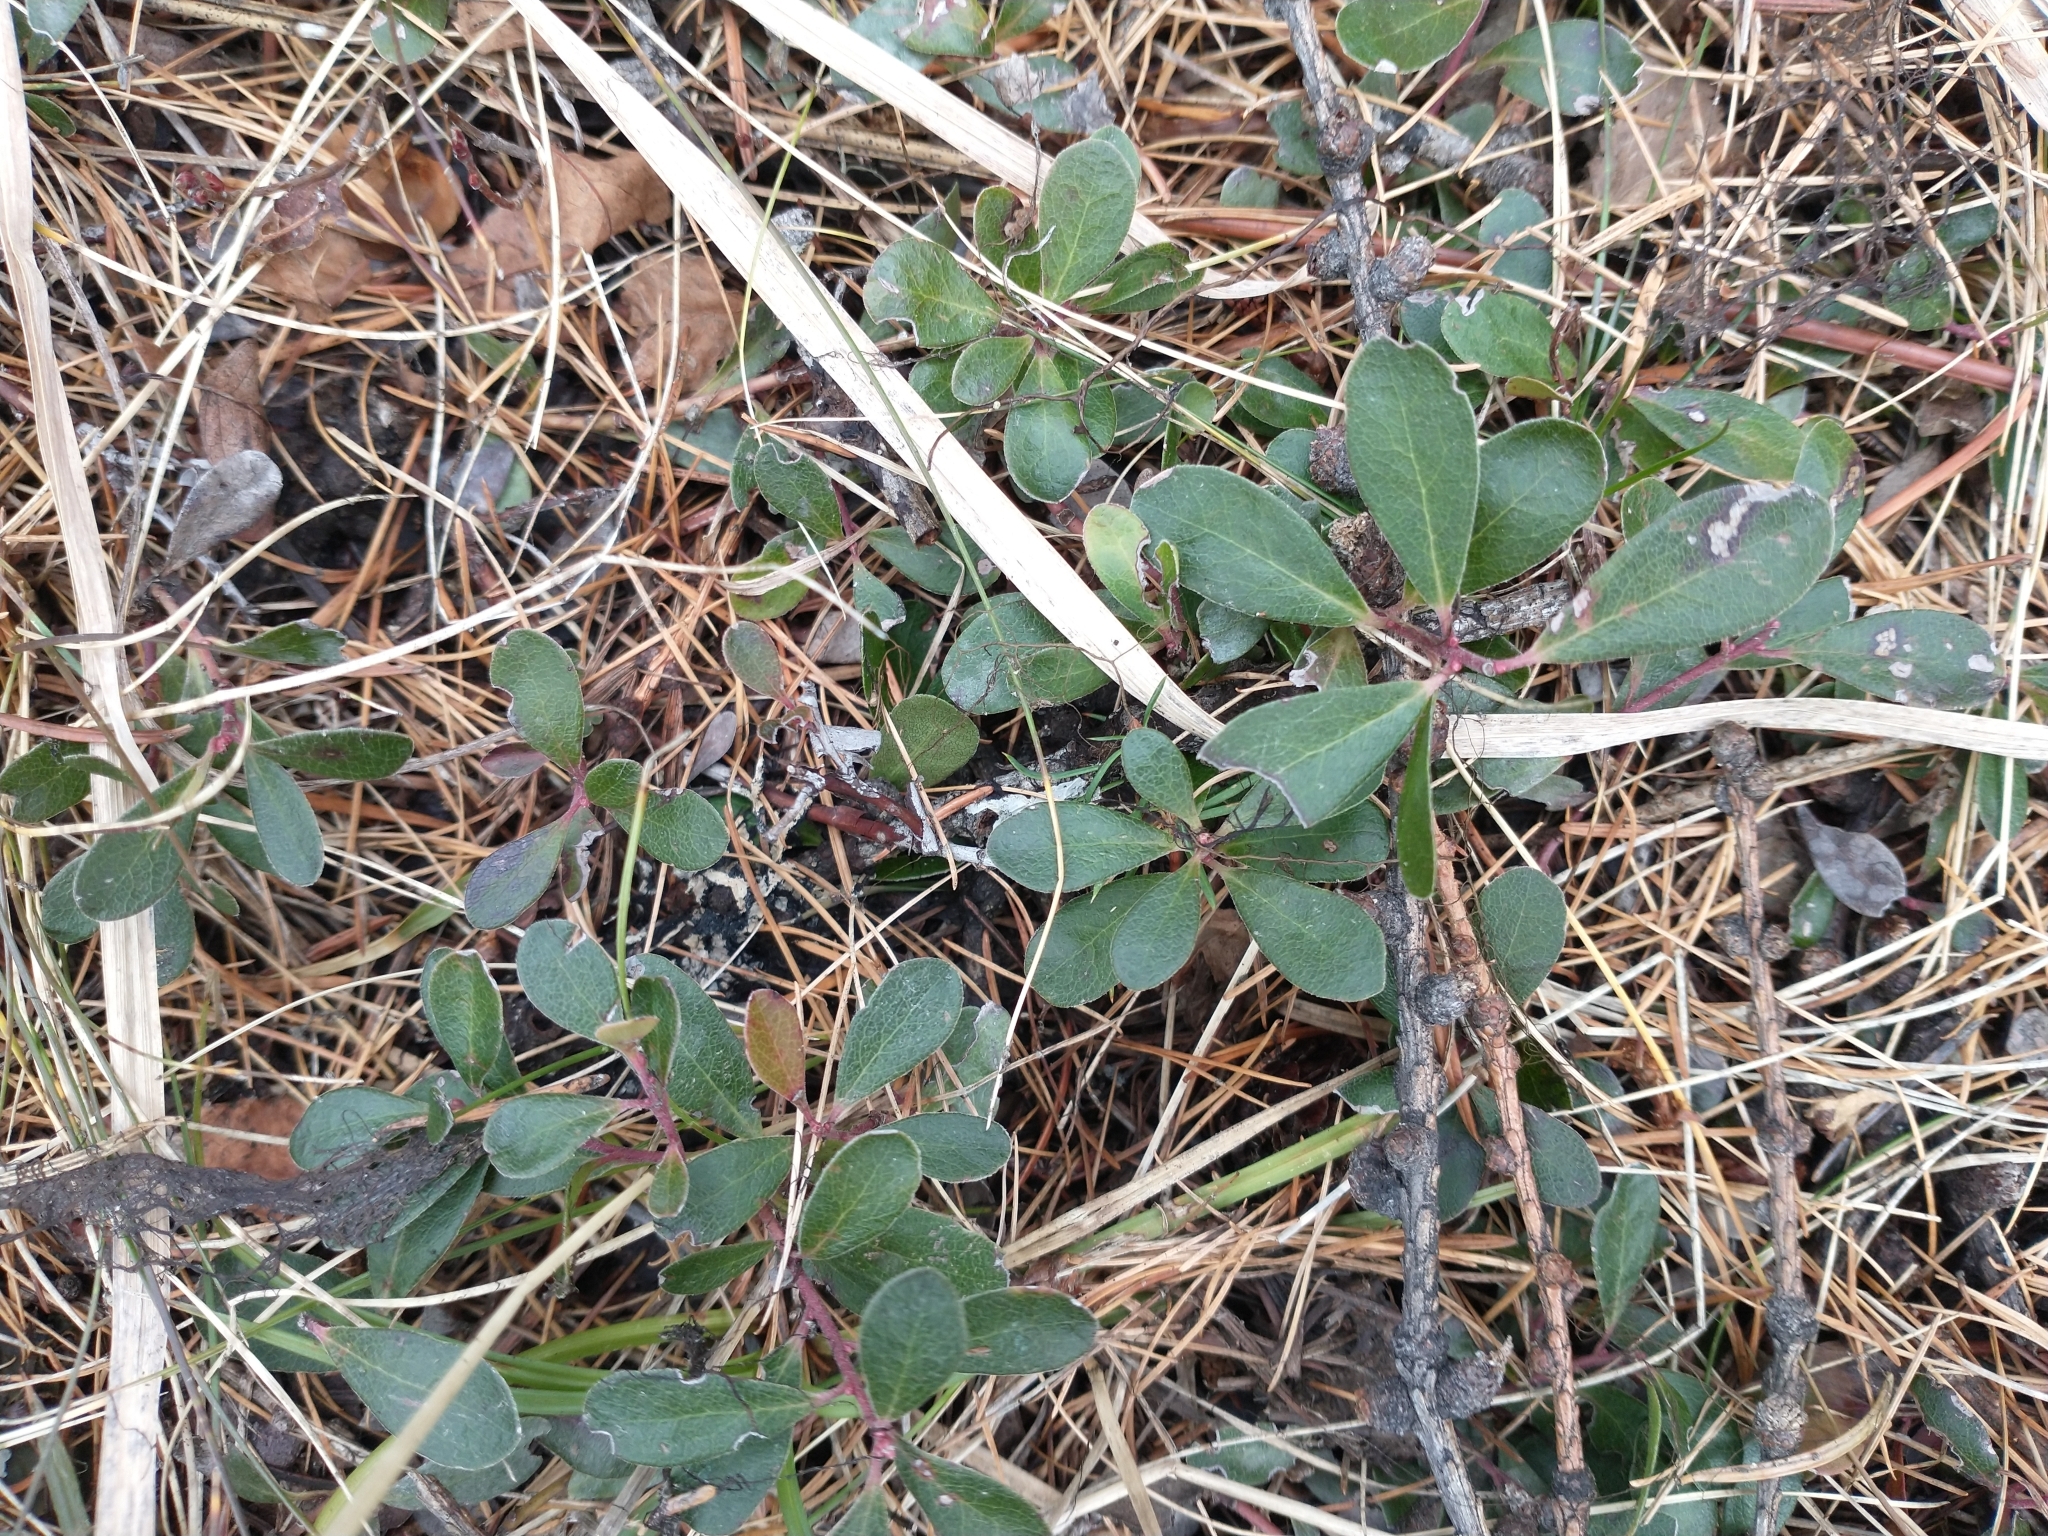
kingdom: Plantae
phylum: Tracheophyta
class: Magnoliopsida
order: Ericales
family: Ericaceae
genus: Arctostaphylos
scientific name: Arctostaphylos uva-ursi
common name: Bearberry
